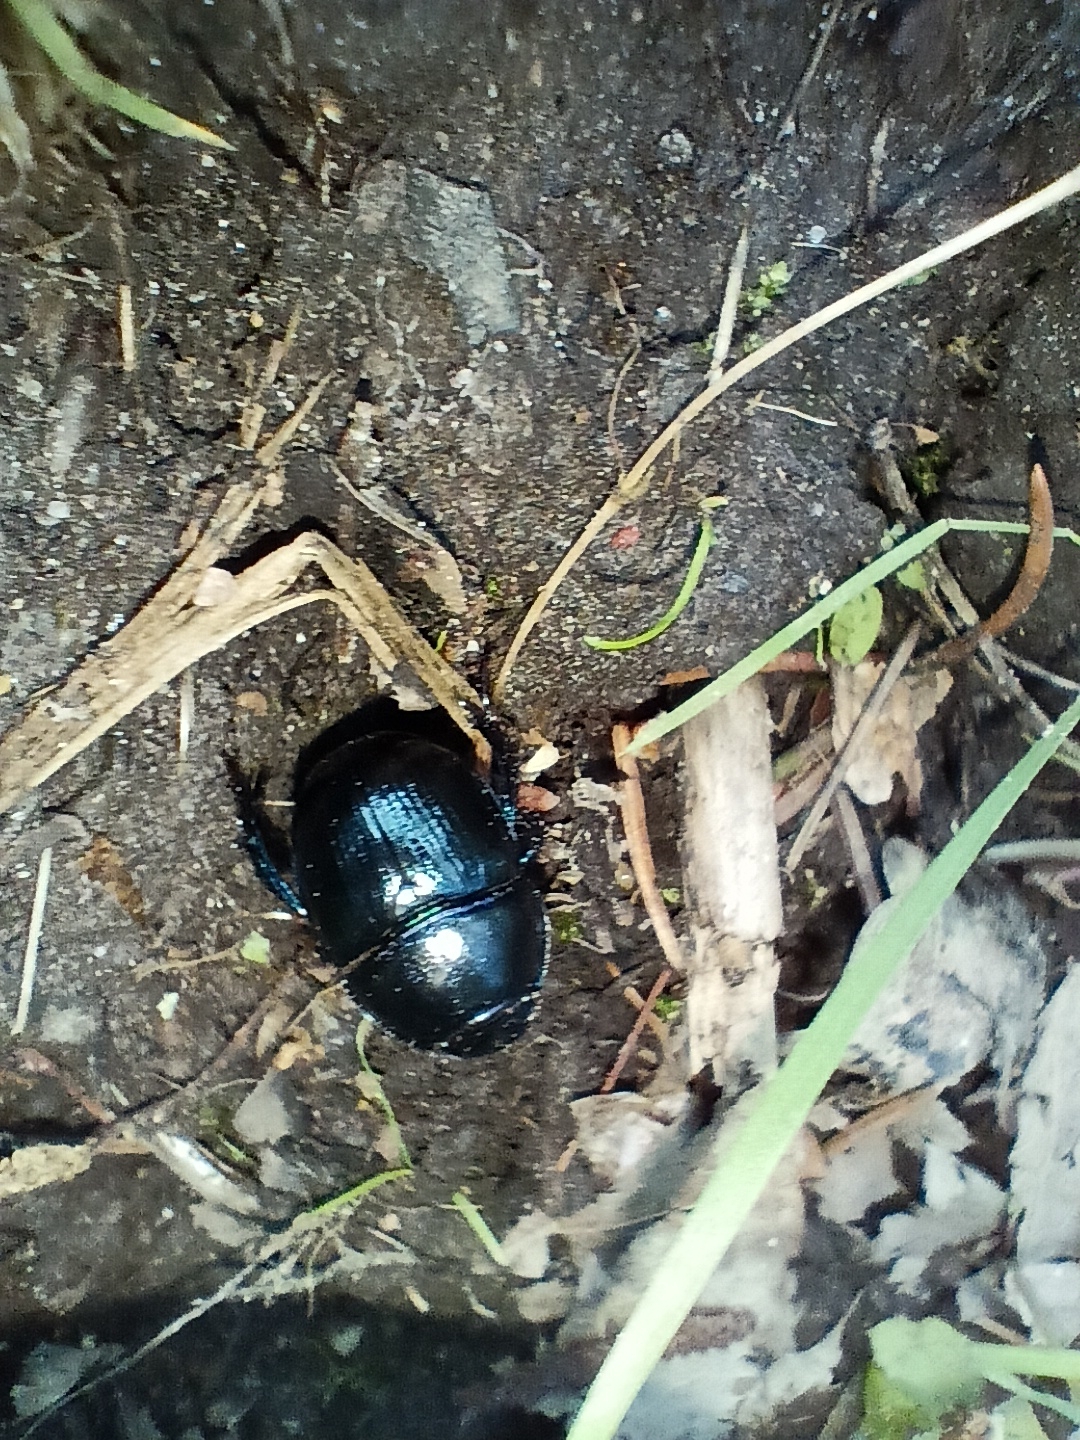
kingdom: Animalia
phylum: Arthropoda
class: Insecta
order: Coleoptera
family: Geotrupidae
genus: Anoplotrupes
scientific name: Anoplotrupes stercorosus
